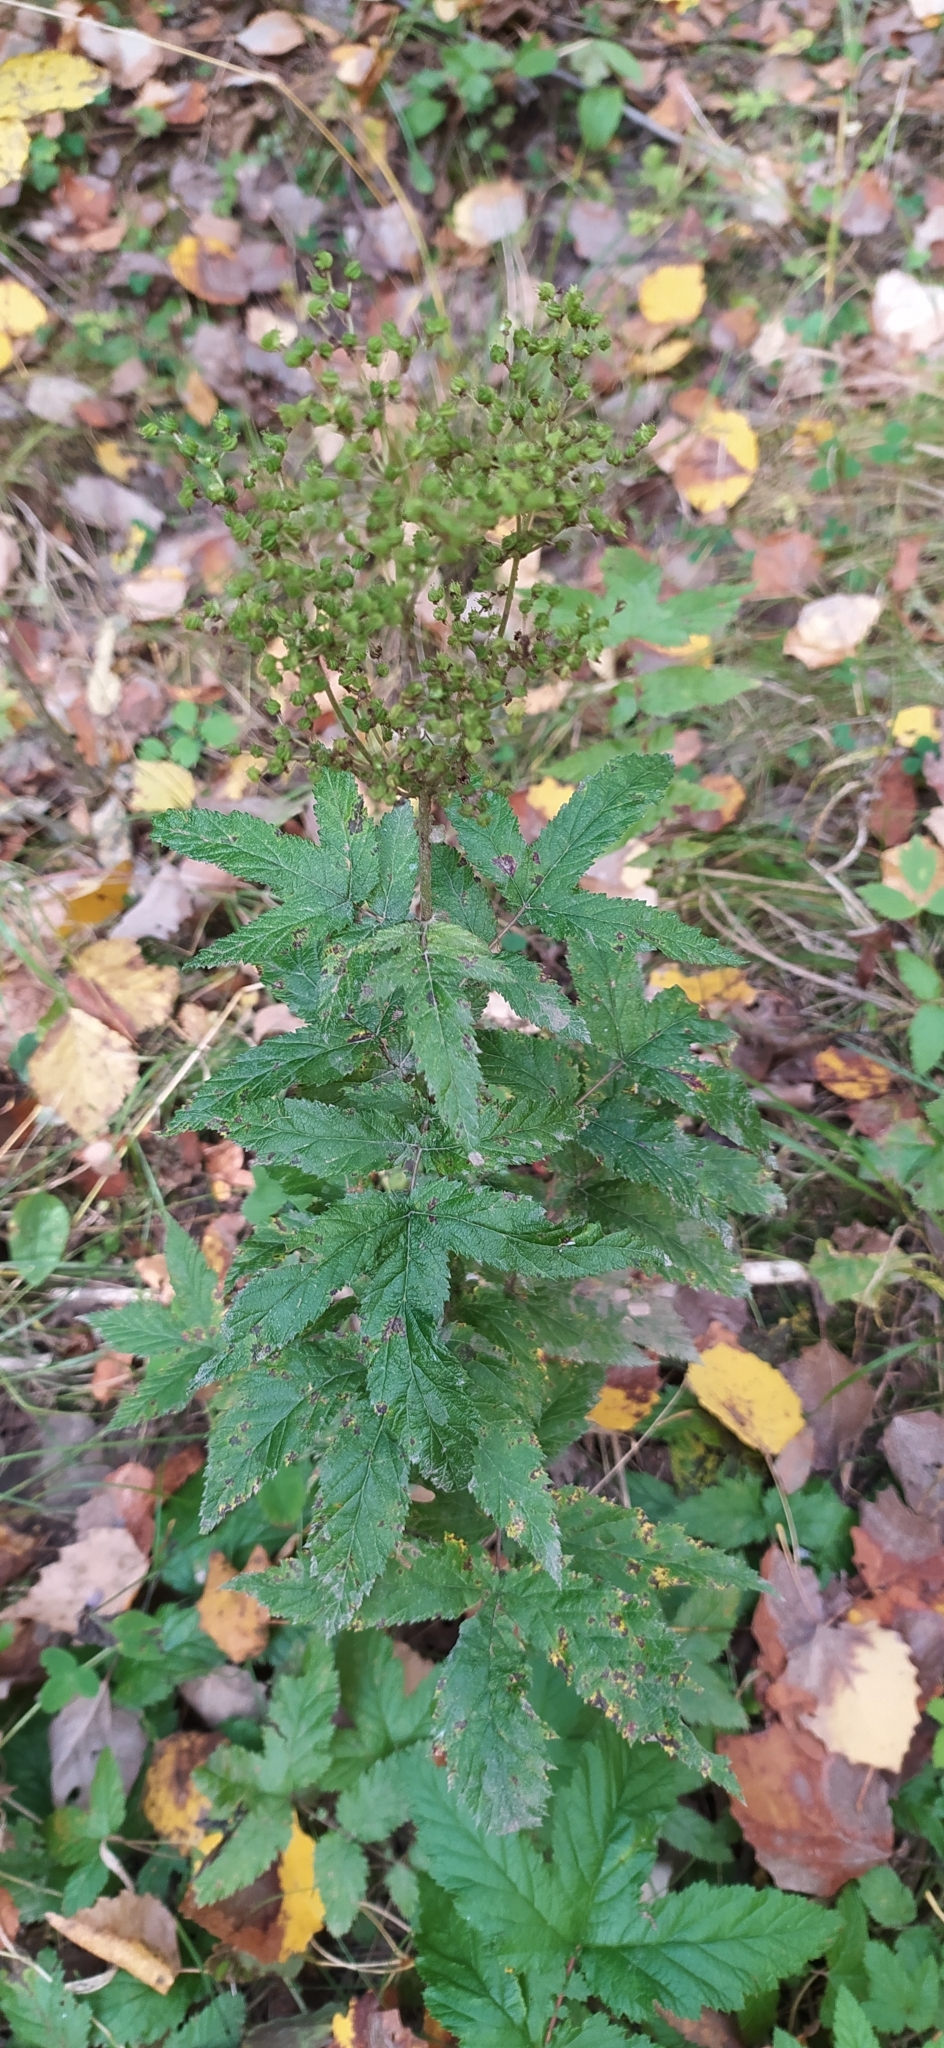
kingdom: Plantae
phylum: Tracheophyta
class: Magnoliopsida
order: Rosales
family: Rosaceae
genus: Filipendula
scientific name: Filipendula ulmaria
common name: Meadowsweet
